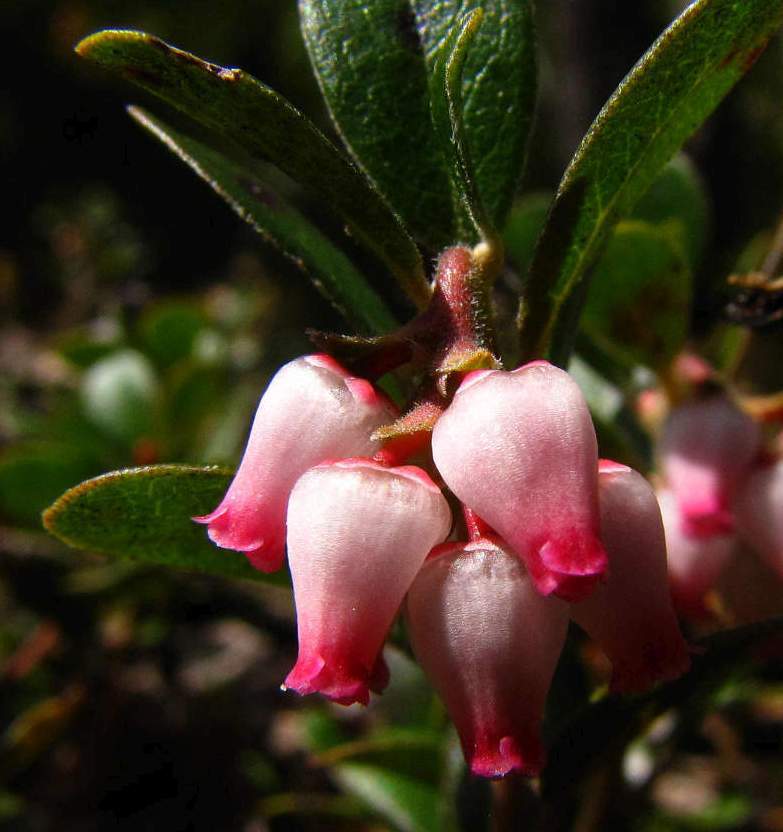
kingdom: Plantae
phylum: Tracheophyta
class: Magnoliopsida
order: Ericales
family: Ericaceae
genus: Arctostaphylos
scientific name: Arctostaphylos uva-ursi
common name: Bearberry
